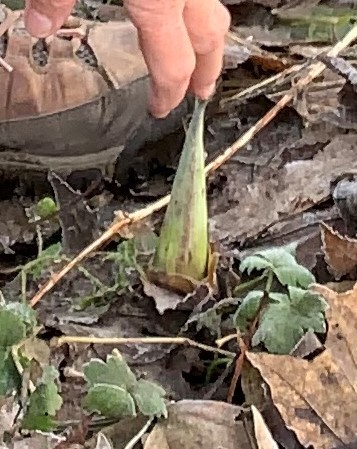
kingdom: Plantae
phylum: Tracheophyta
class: Liliopsida
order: Alismatales
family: Araceae
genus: Symplocarpus
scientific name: Symplocarpus foetidus
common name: Eastern skunk cabbage
